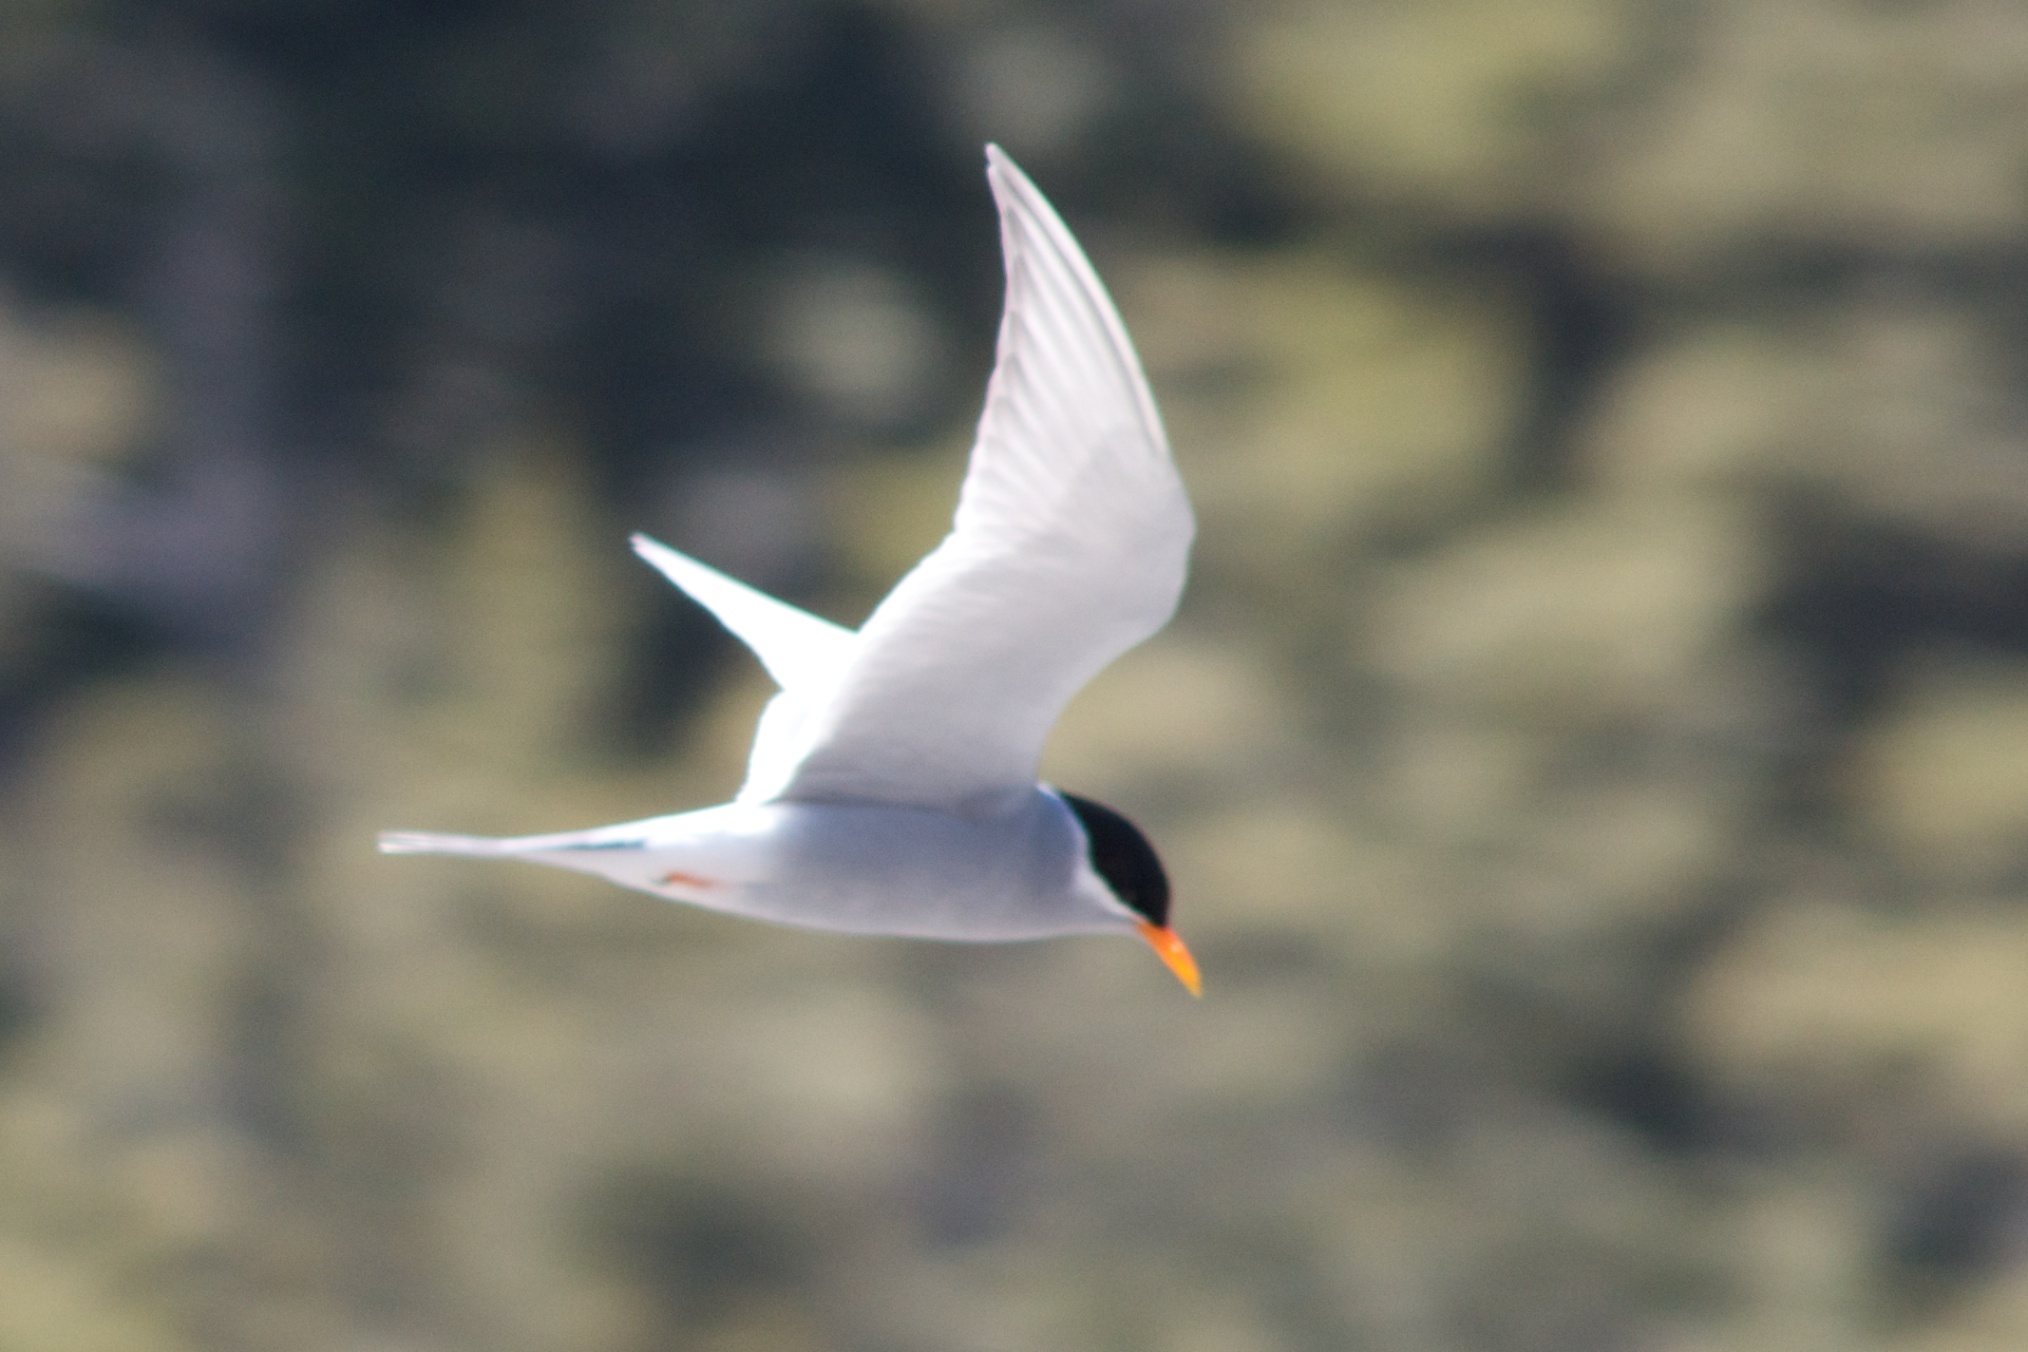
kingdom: Animalia
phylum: Chordata
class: Aves
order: Charadriiformes
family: Laridae
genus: Chlidonias
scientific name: Chlidonias albostriatus
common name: Black-fronted tern
